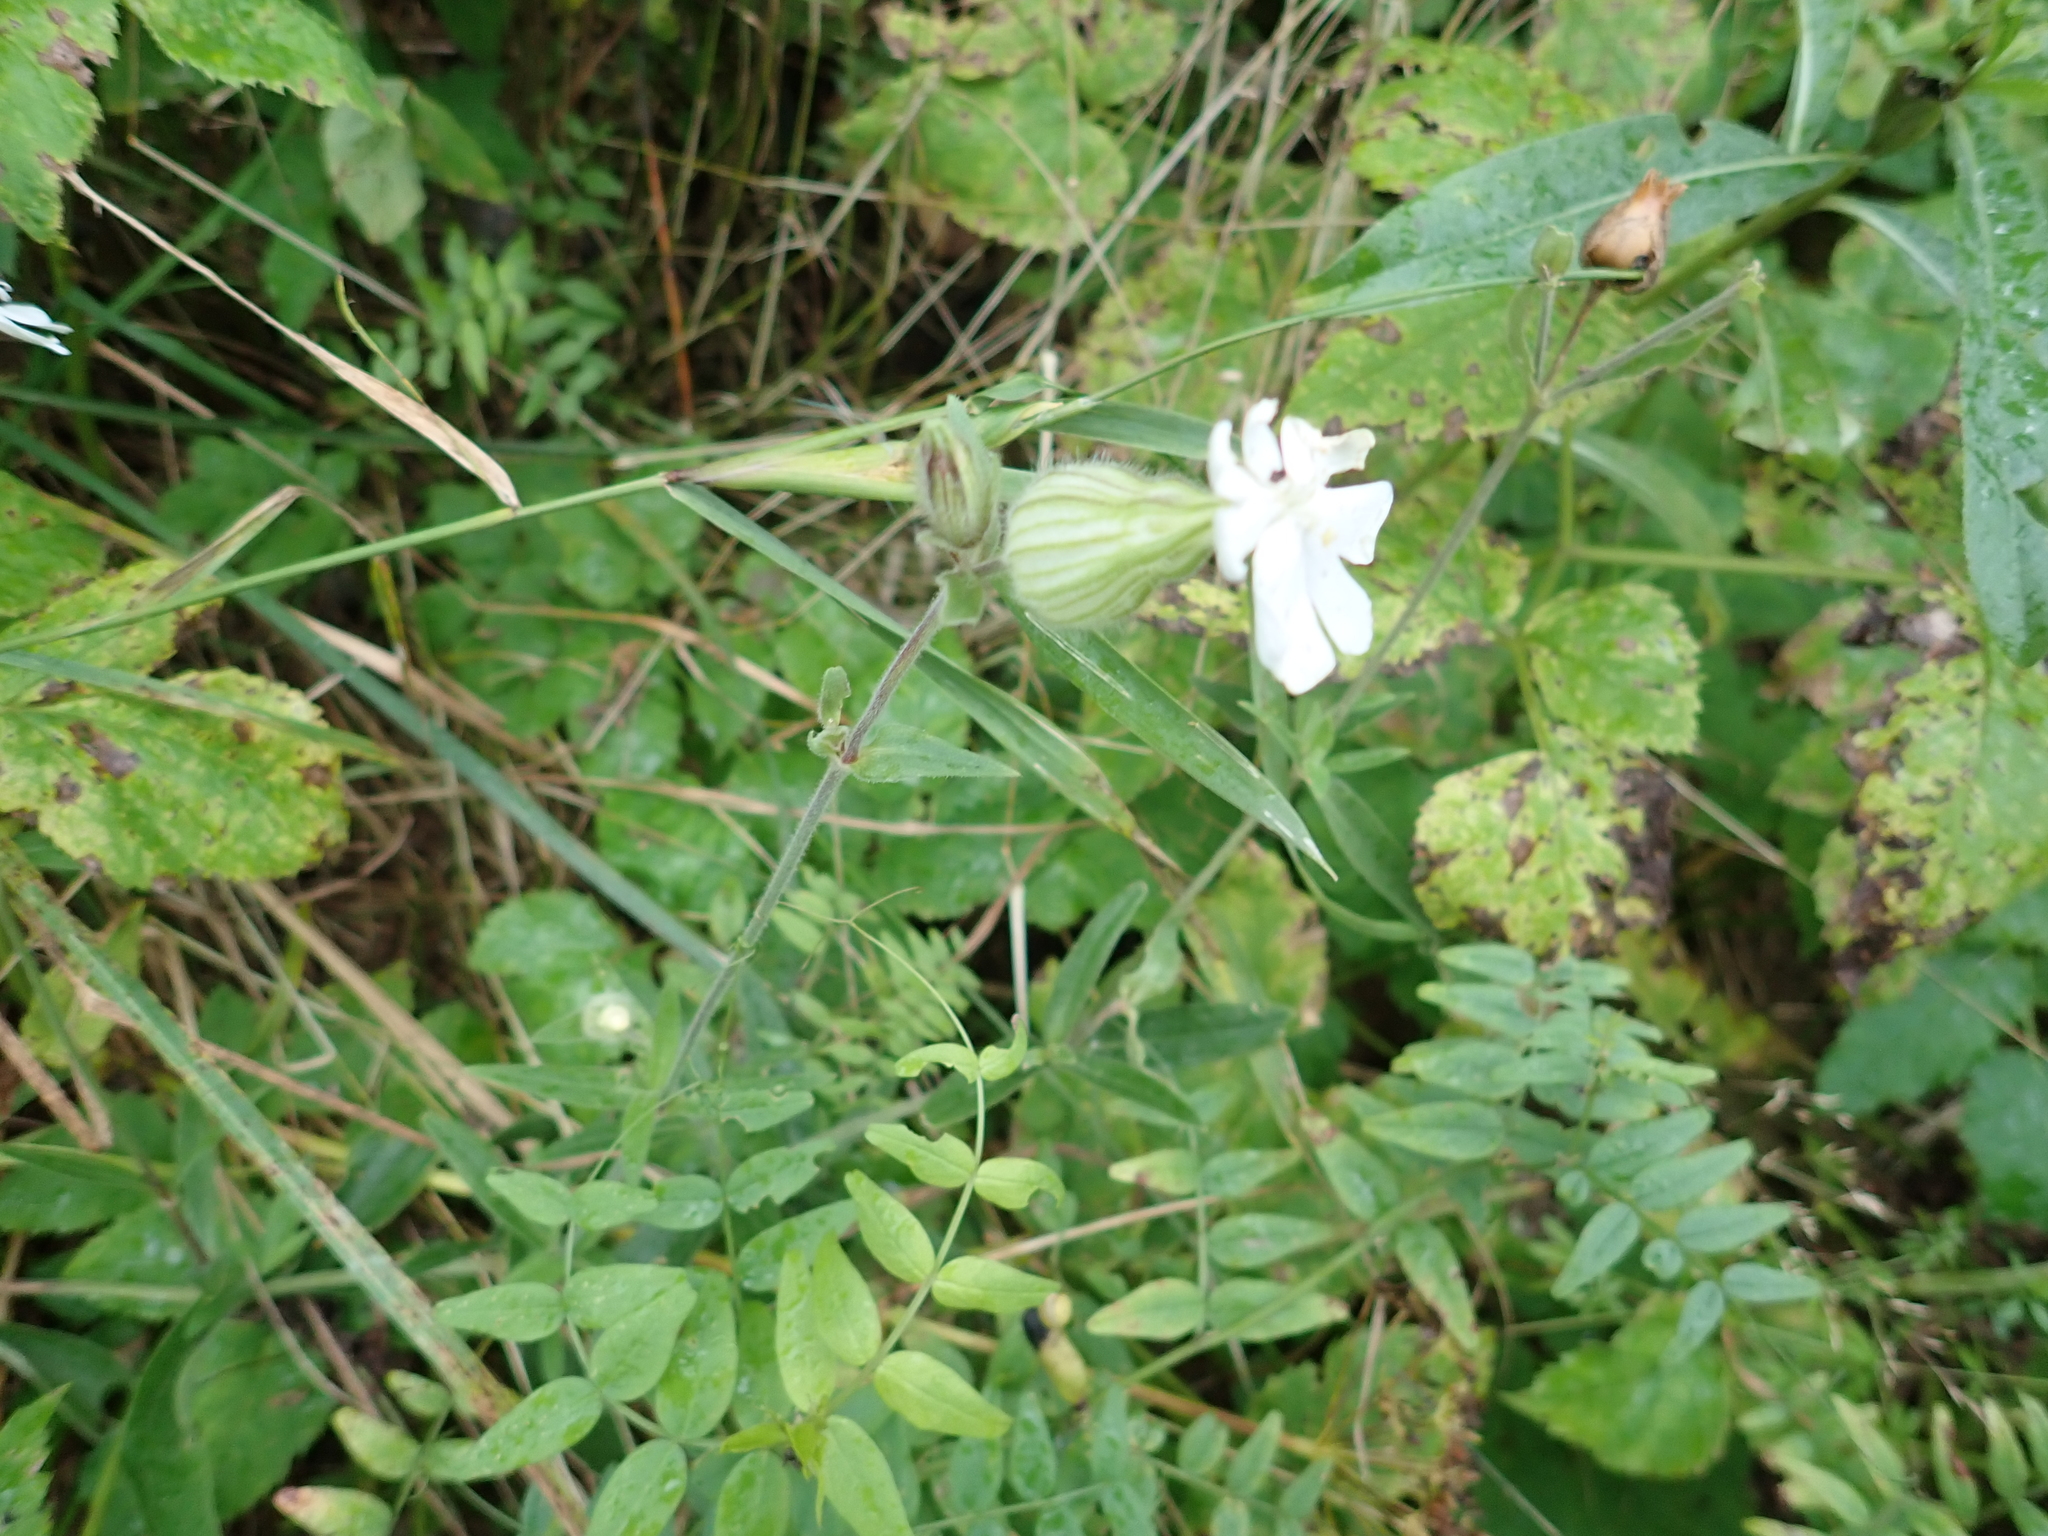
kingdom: Plantae
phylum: Tracheophyta
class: Magnoliopsida
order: Caryophyllales
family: Caryophyllaceae
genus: Silene
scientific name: Silene latifolia
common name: White campion
